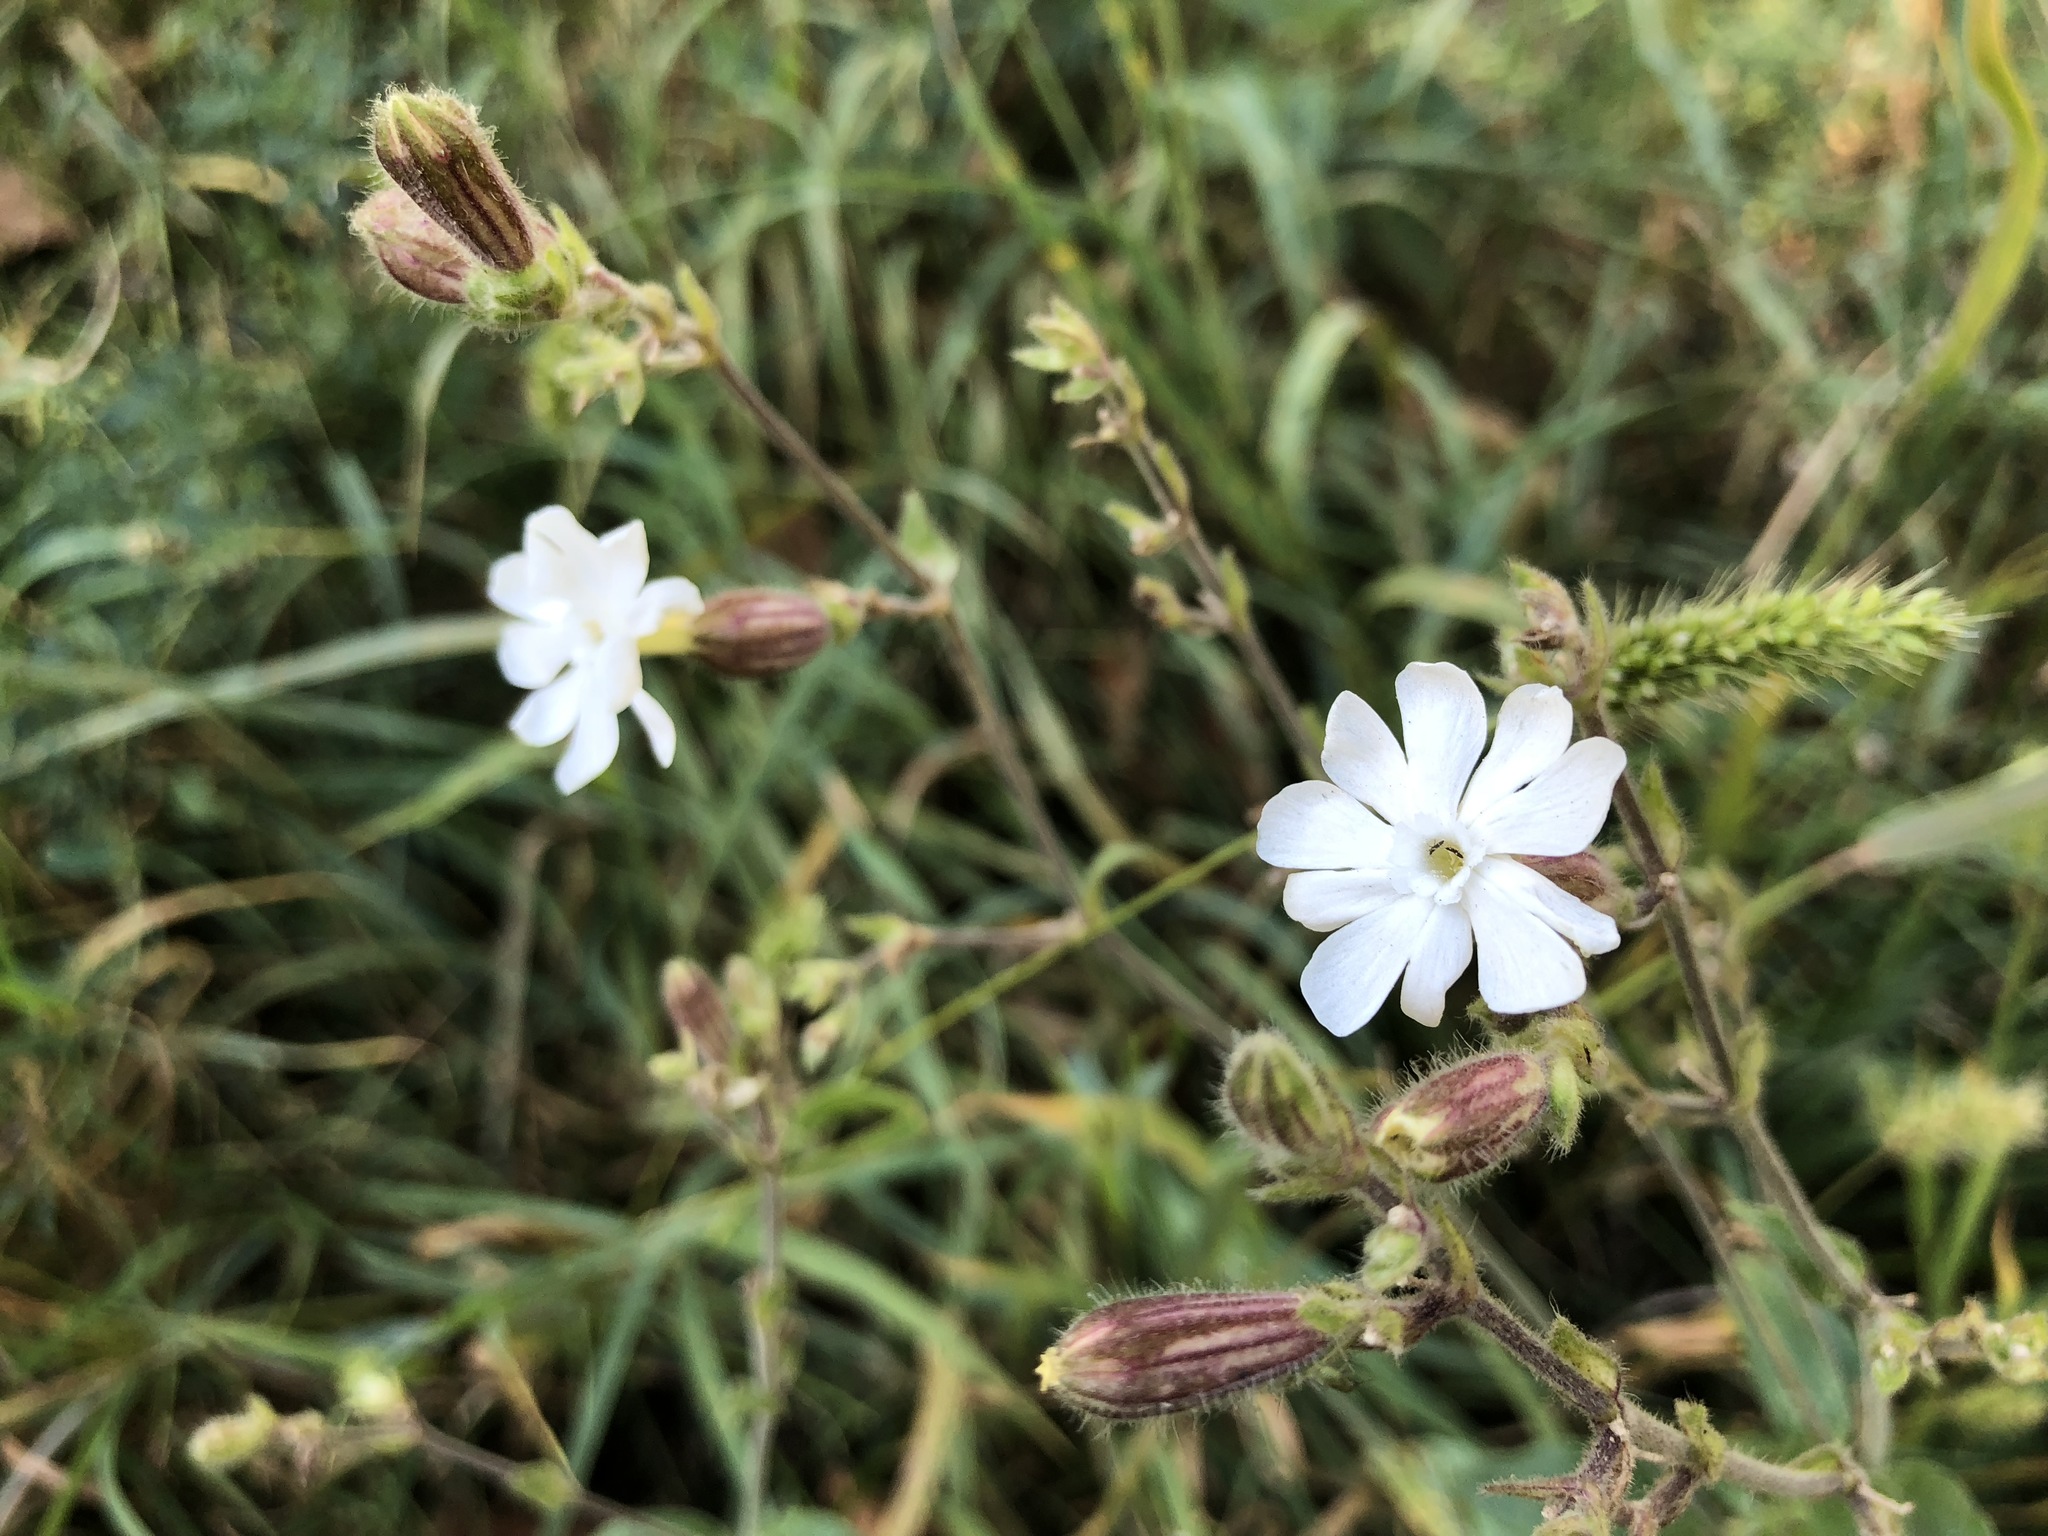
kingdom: Plantae
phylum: Tracheophyta
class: Magnoliopsida
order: Caryophyllales
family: Caryophyllaceae
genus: Silene
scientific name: Silene latifolia
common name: White campion
